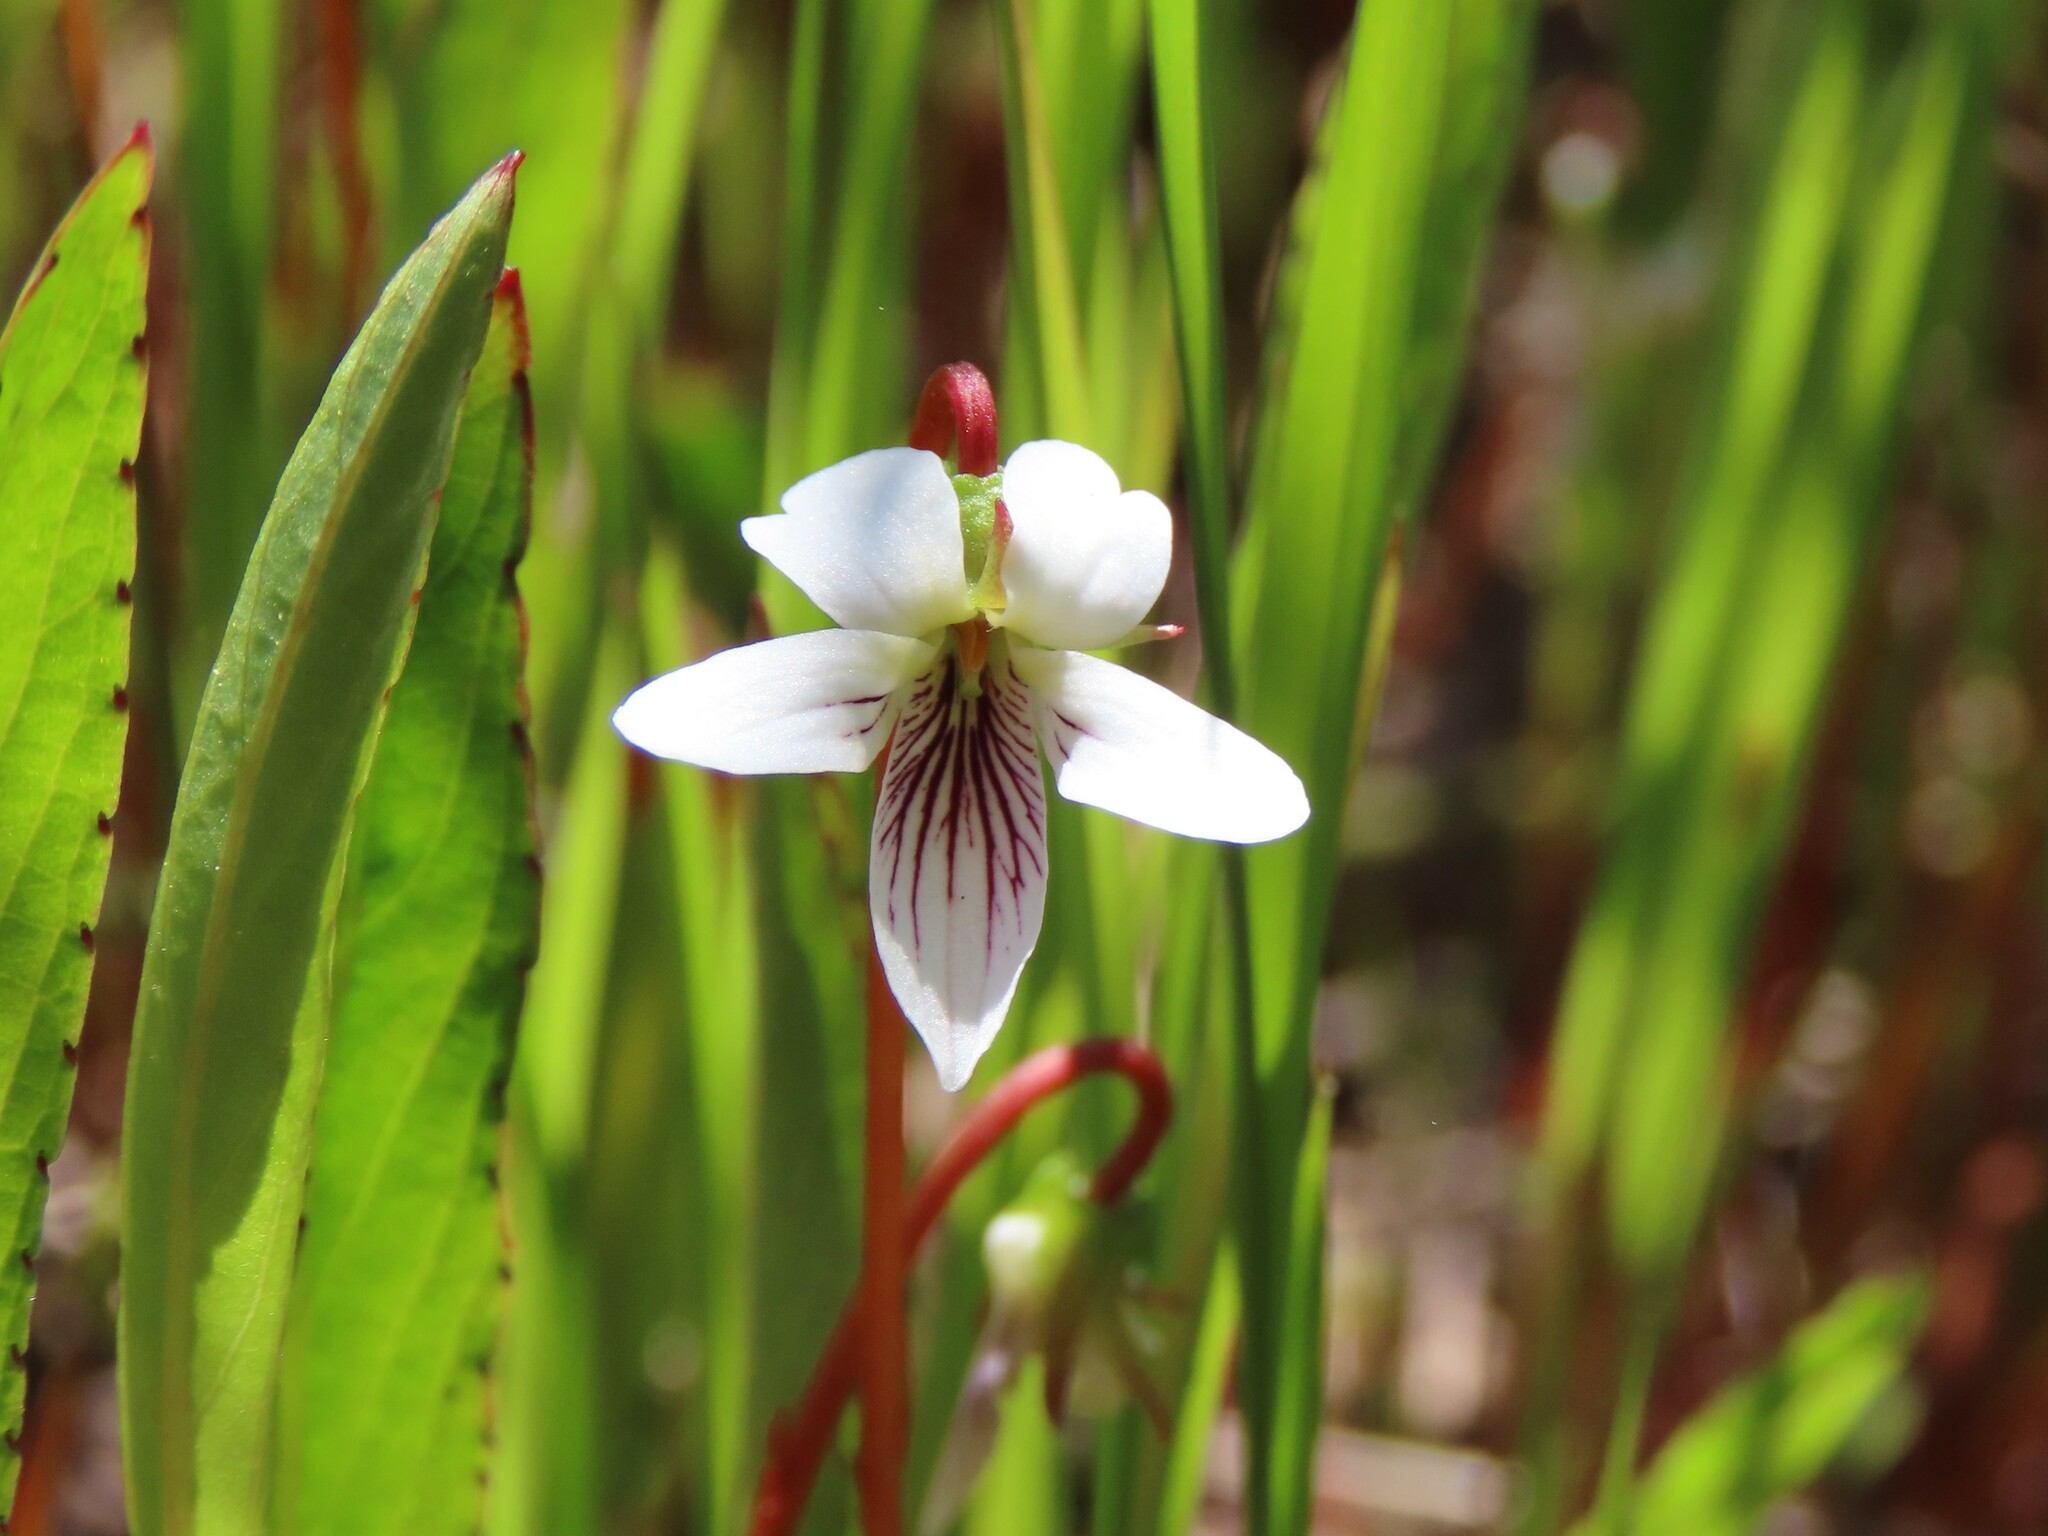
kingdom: Plantae
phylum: Tracheophyta
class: Magnoliopsida
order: Malpighiales
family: Violaceae
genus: Viola
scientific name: Viola lanceolata
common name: Bog white violet
